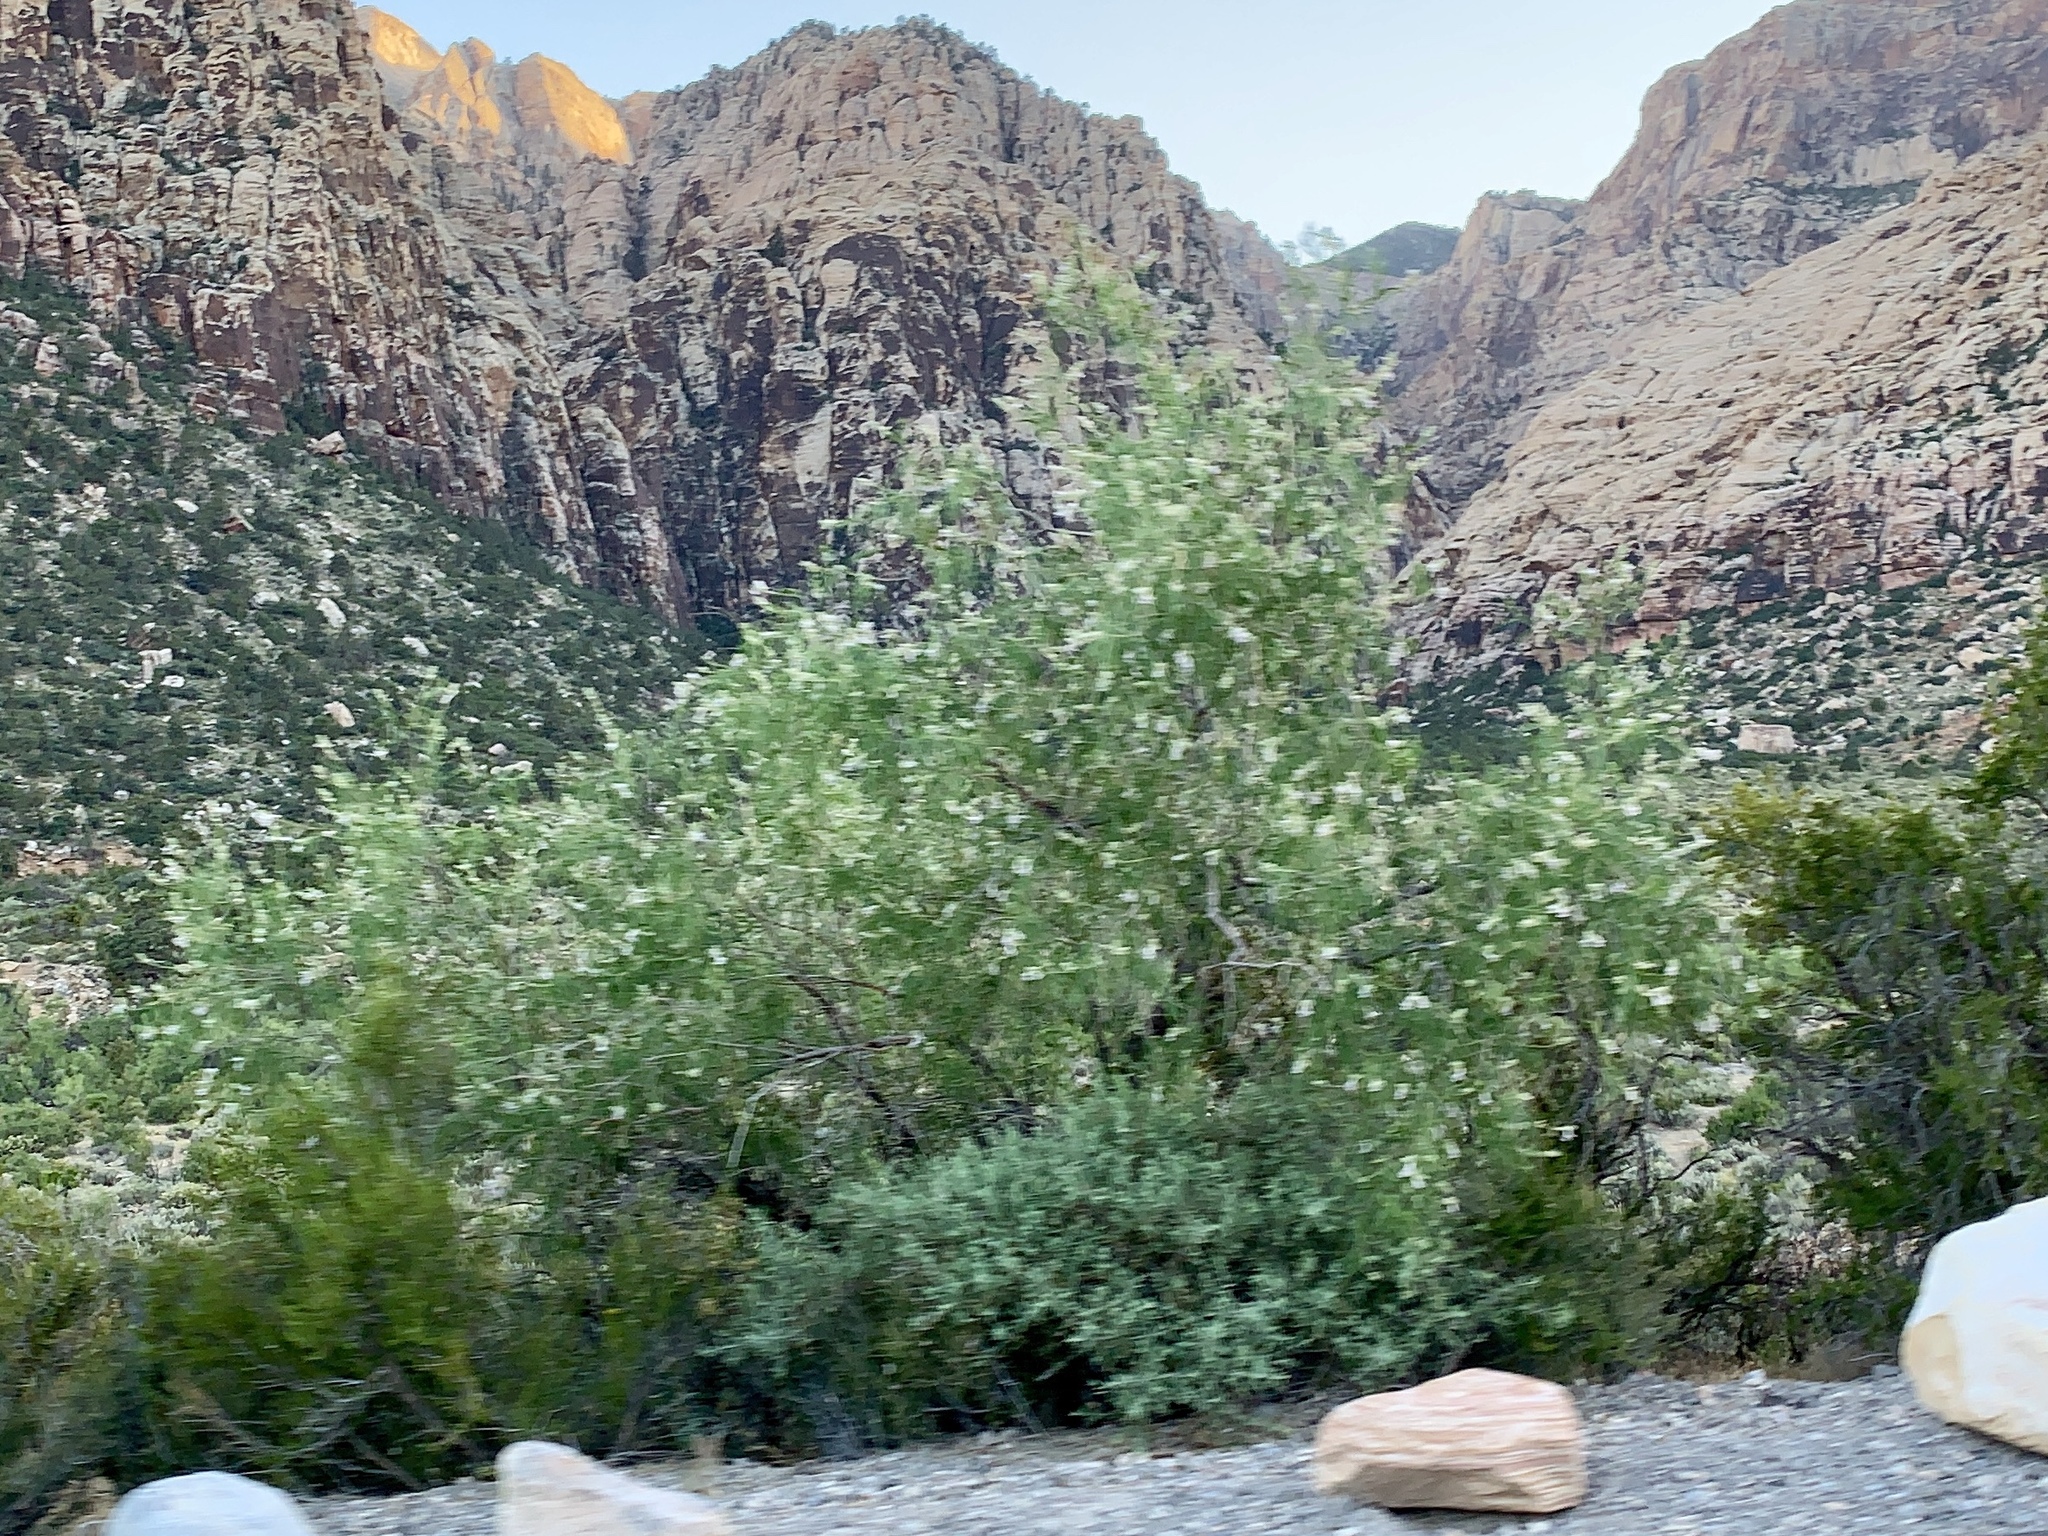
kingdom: Plantae
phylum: Tracheophyta
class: Magnoliopsida
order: Lamiales
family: Bignoniaceae
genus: Chilopsis
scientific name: Chilopsis linearis
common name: Desert-willow
